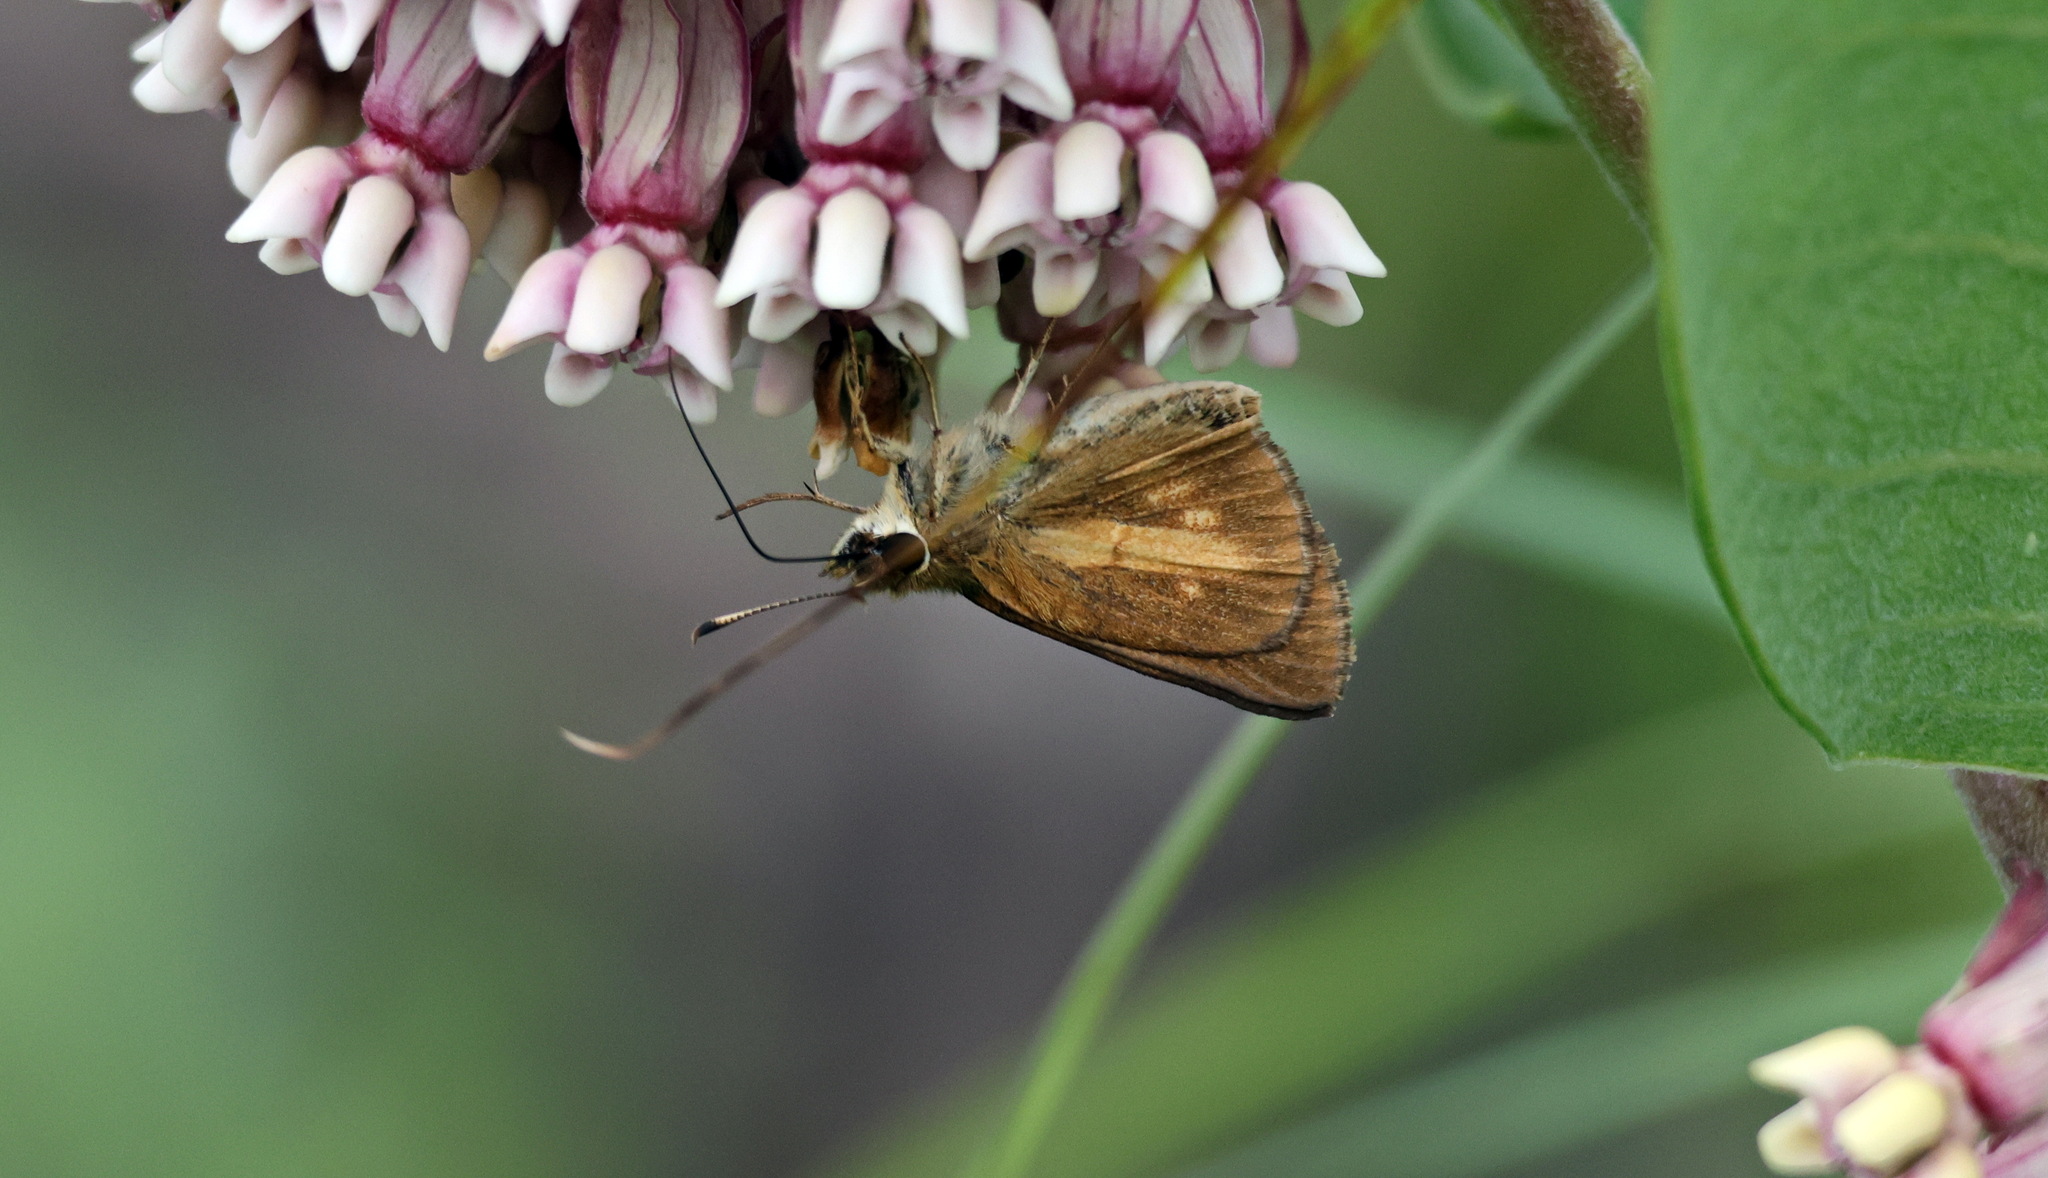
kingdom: Animalia
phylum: Arthropoda
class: Insecta
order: Lepidoptera
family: Hesperiidae
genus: Poanes
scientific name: Poanes viator
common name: Broad-winged skipper
